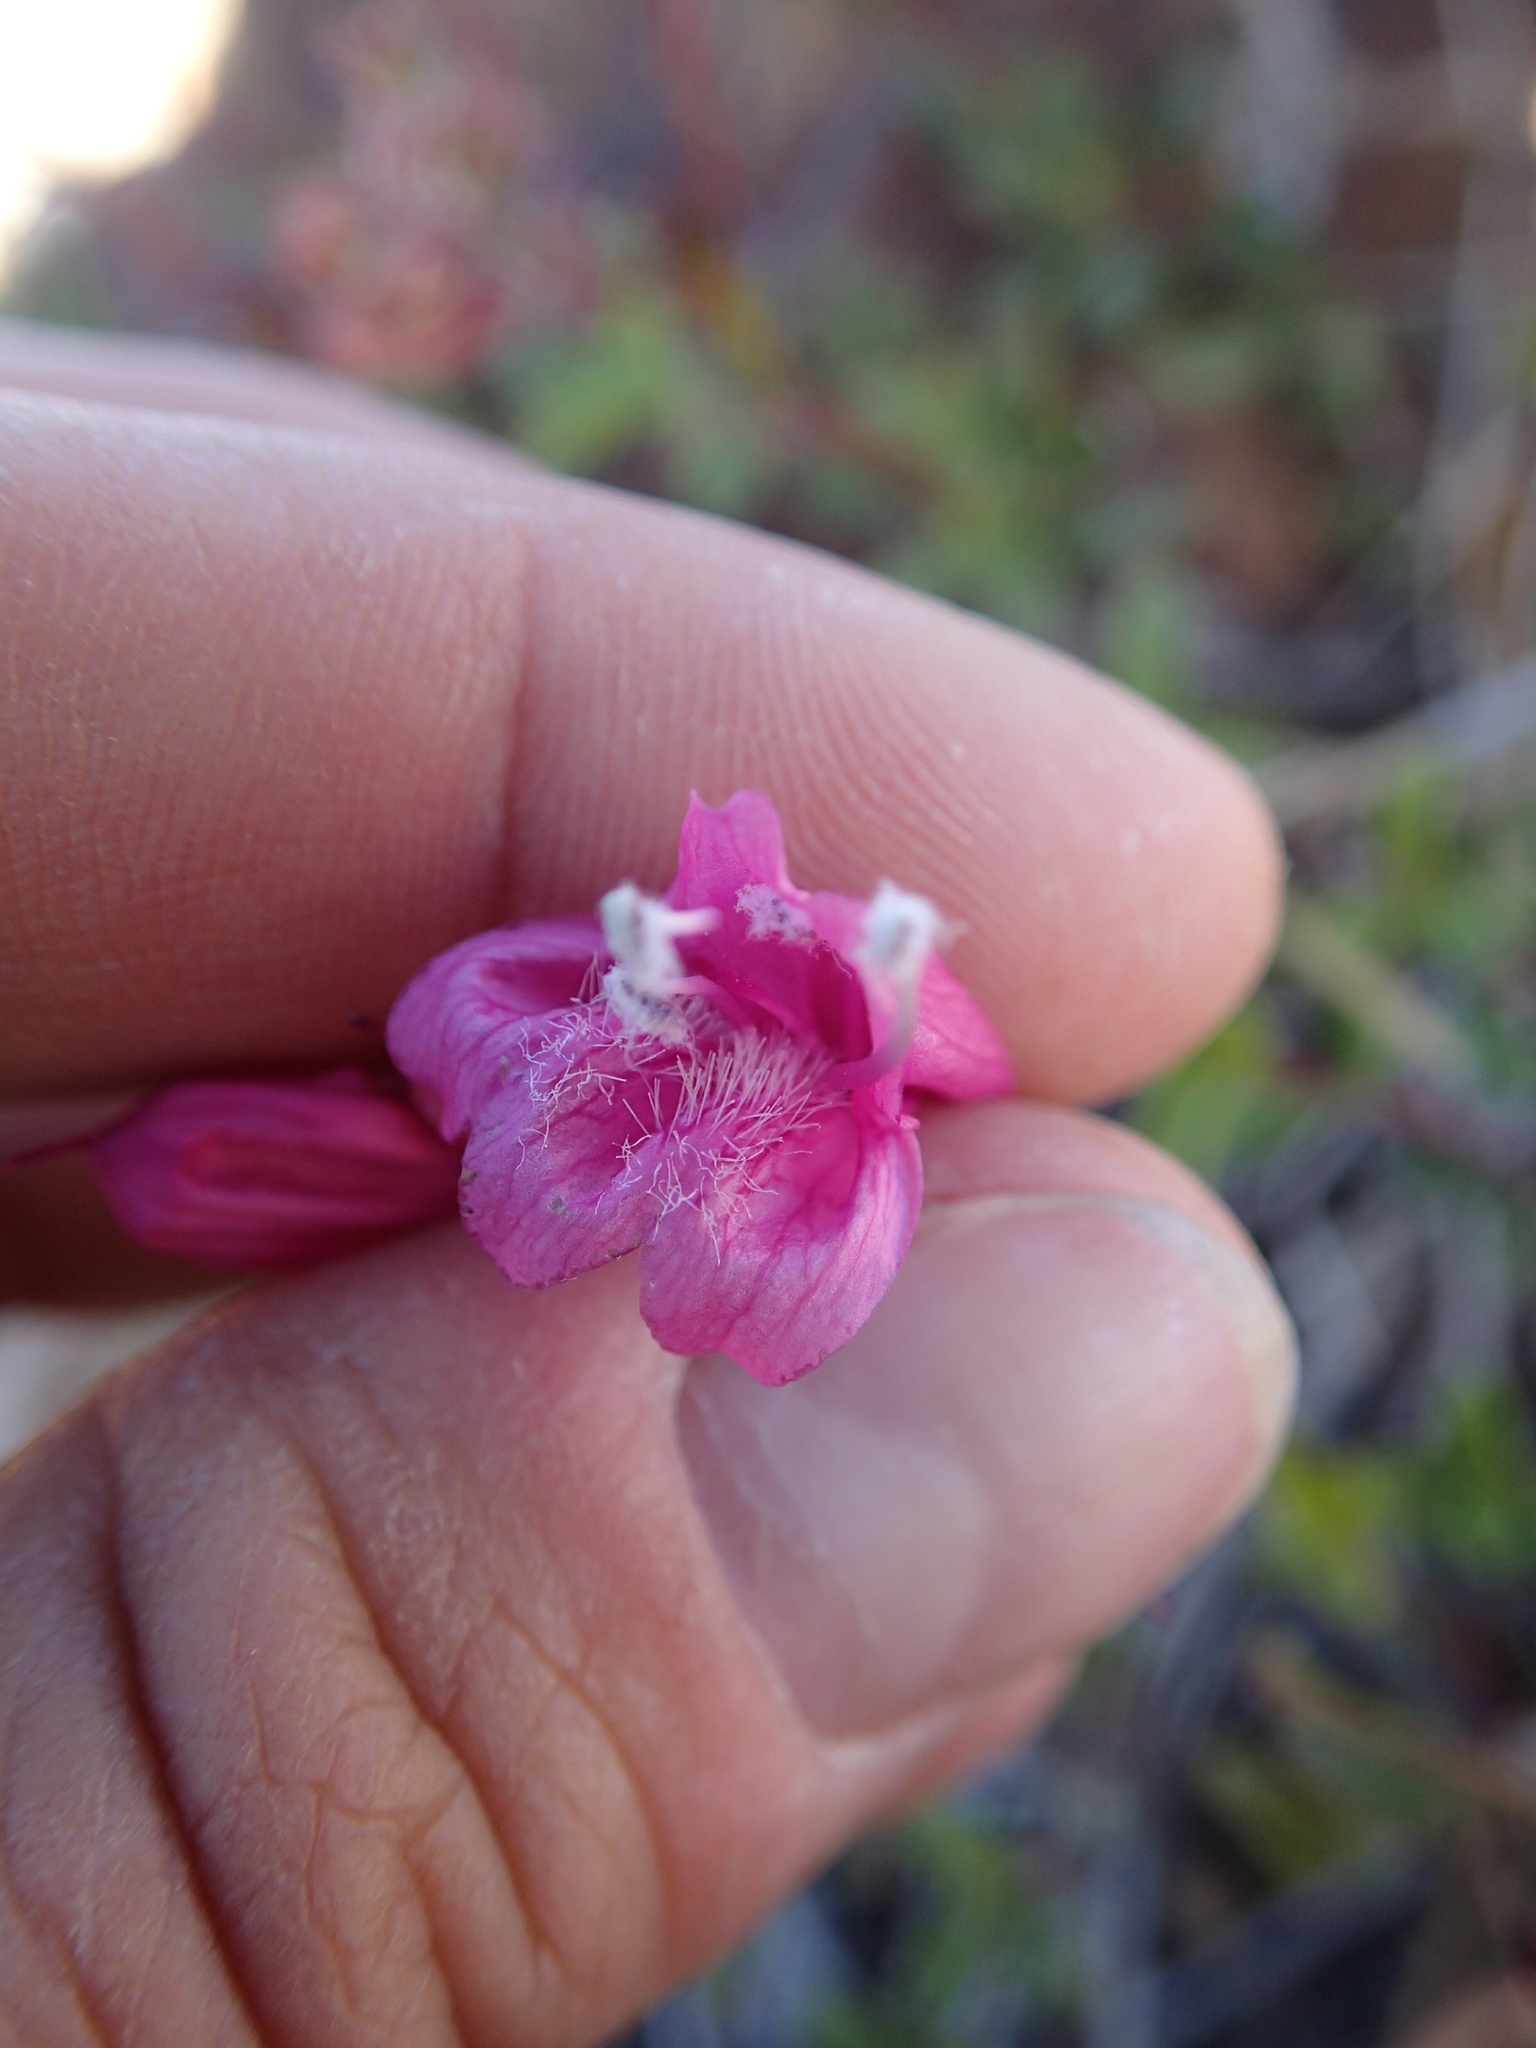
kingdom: Plantae
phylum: Tracheophyta
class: Magnoliopsida
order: Lamiales
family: Plantaginaceae
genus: Penstemon
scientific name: Penstemon newberryi
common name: Mountain-pride
